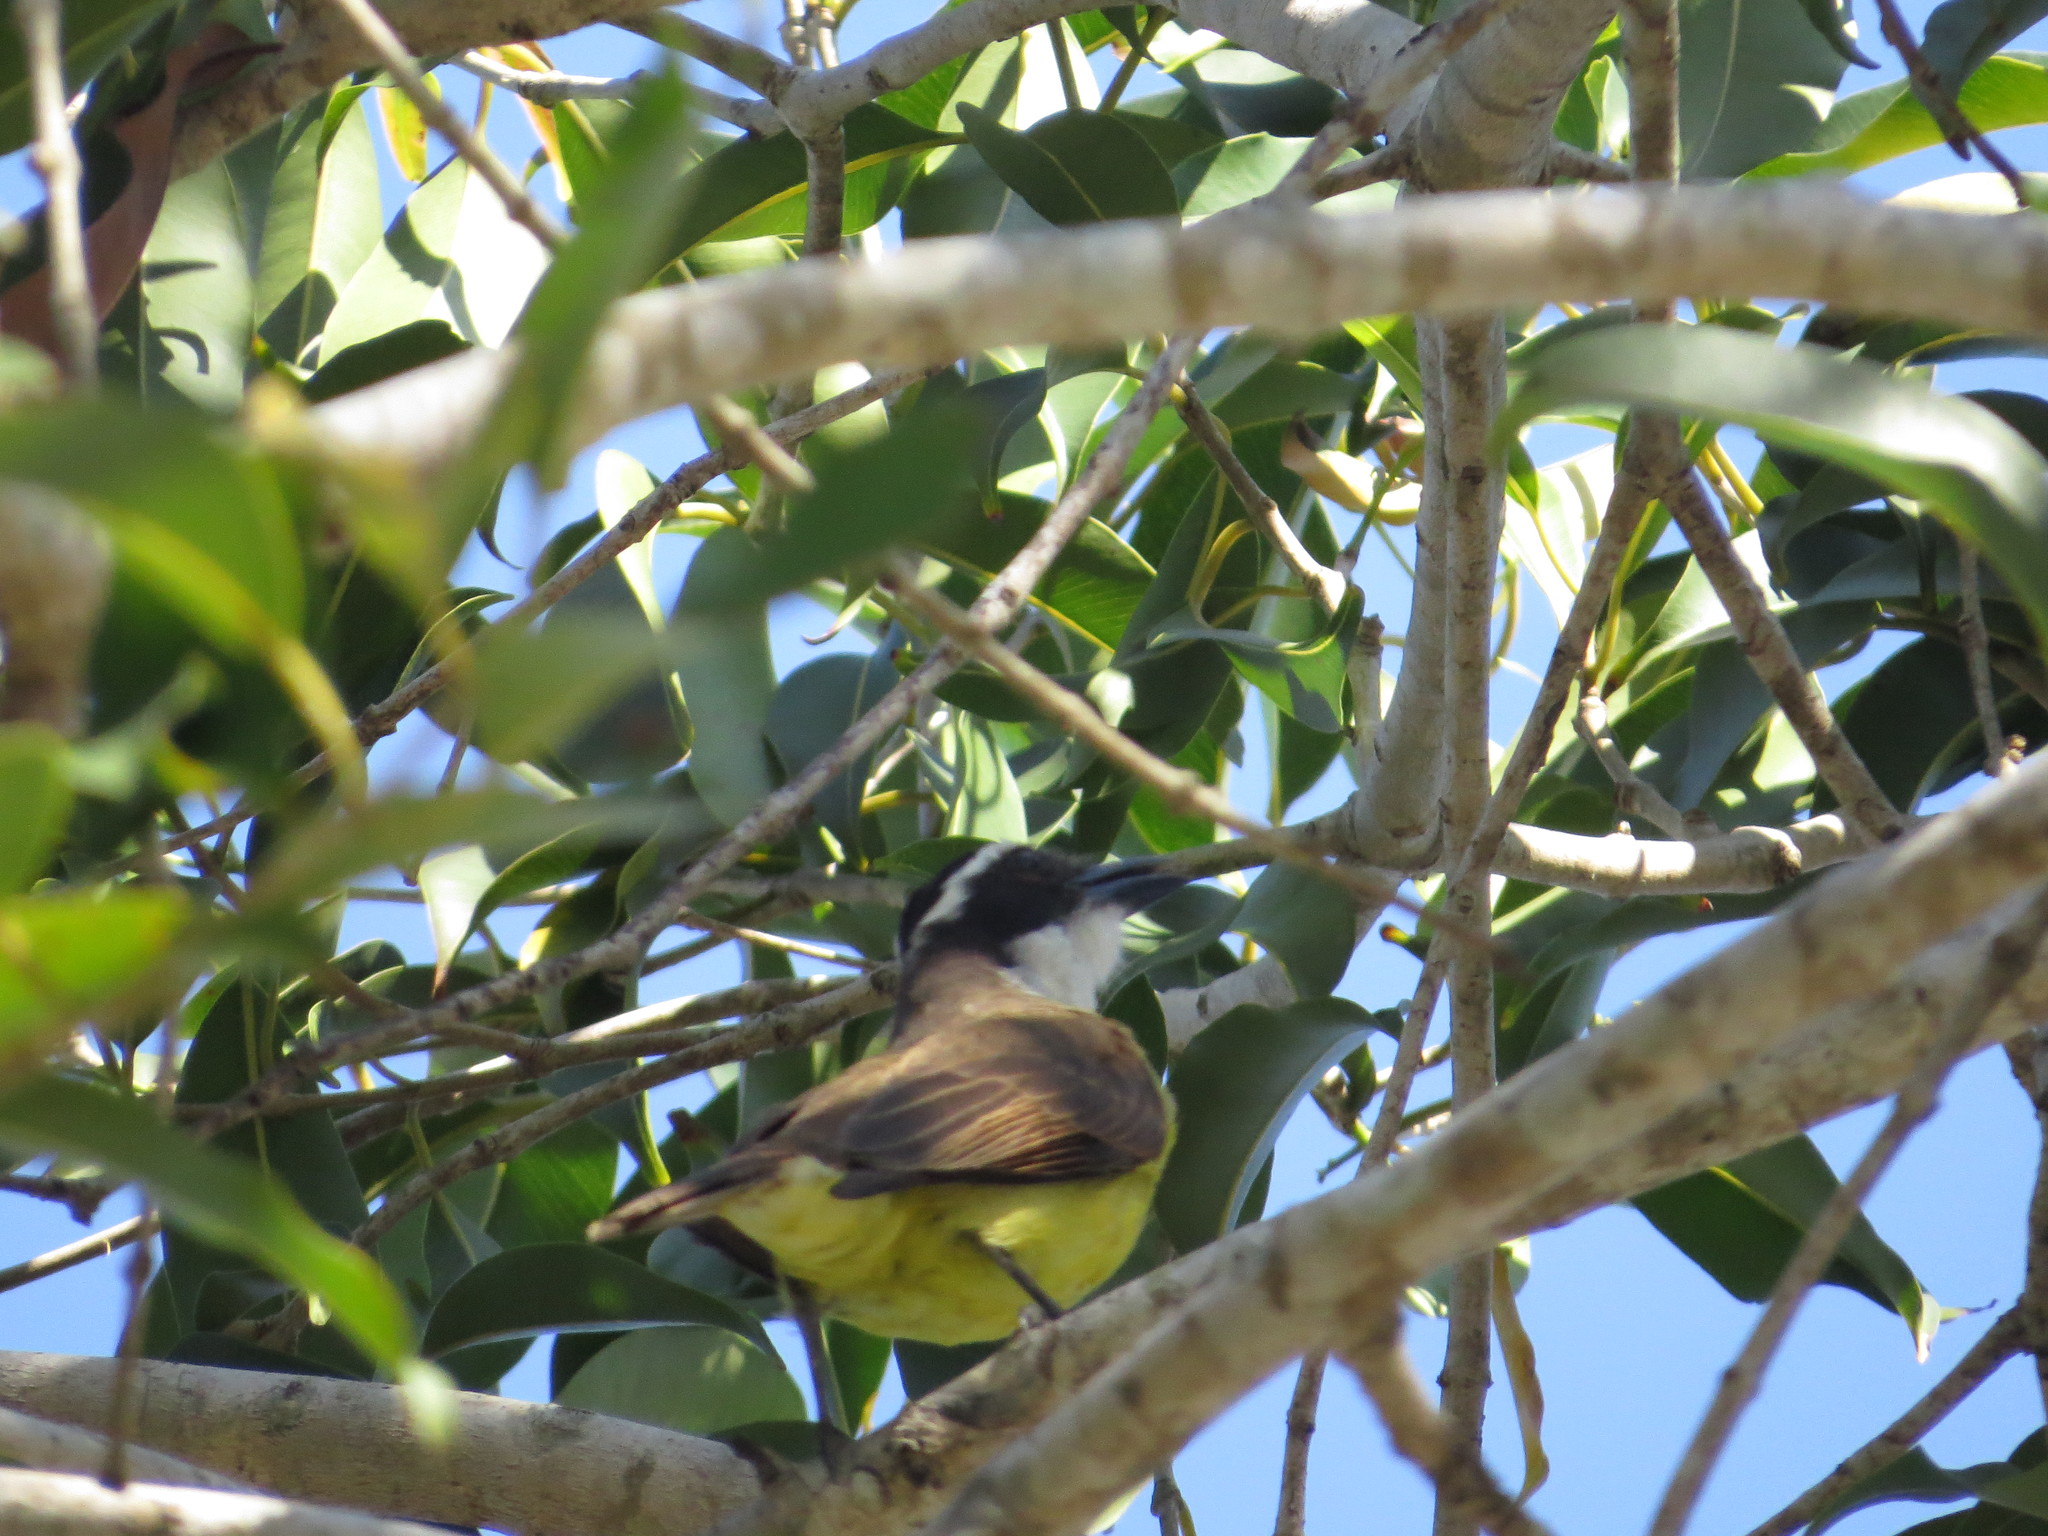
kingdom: Animalia
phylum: Chordata
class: Aves
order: Passeriformes
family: Tyrannidae
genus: Pitangus
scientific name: Pitangus sulphuratus
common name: Great kiskadee
